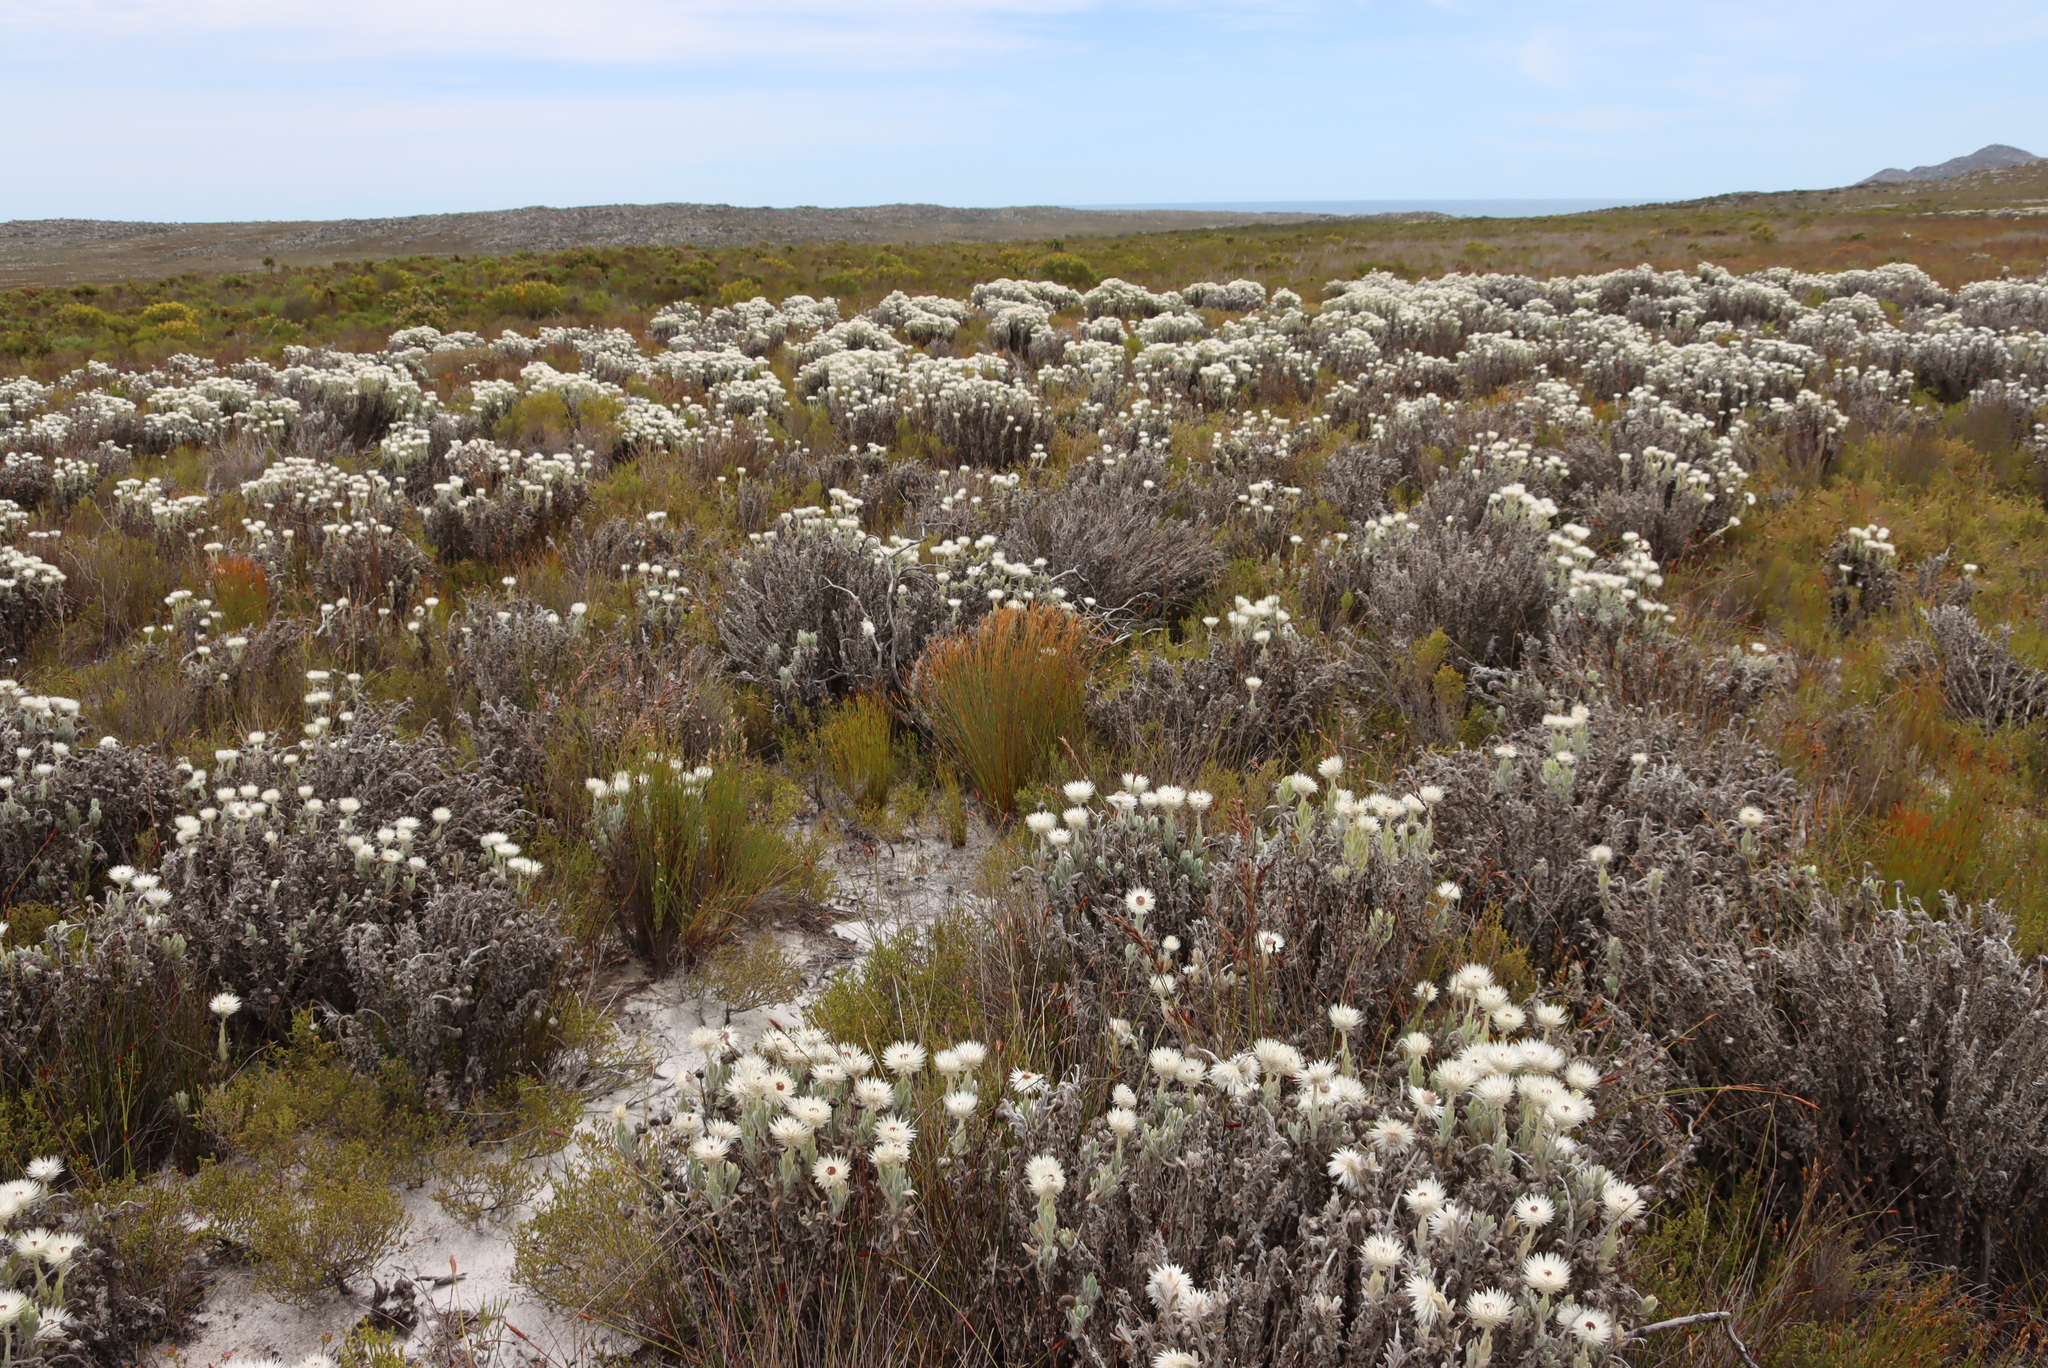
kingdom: Plantae
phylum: Tracheophyta
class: Magnoliopsida
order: Asterales
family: Asteraceae
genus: Syncarpha
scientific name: Syncarpha vestita
